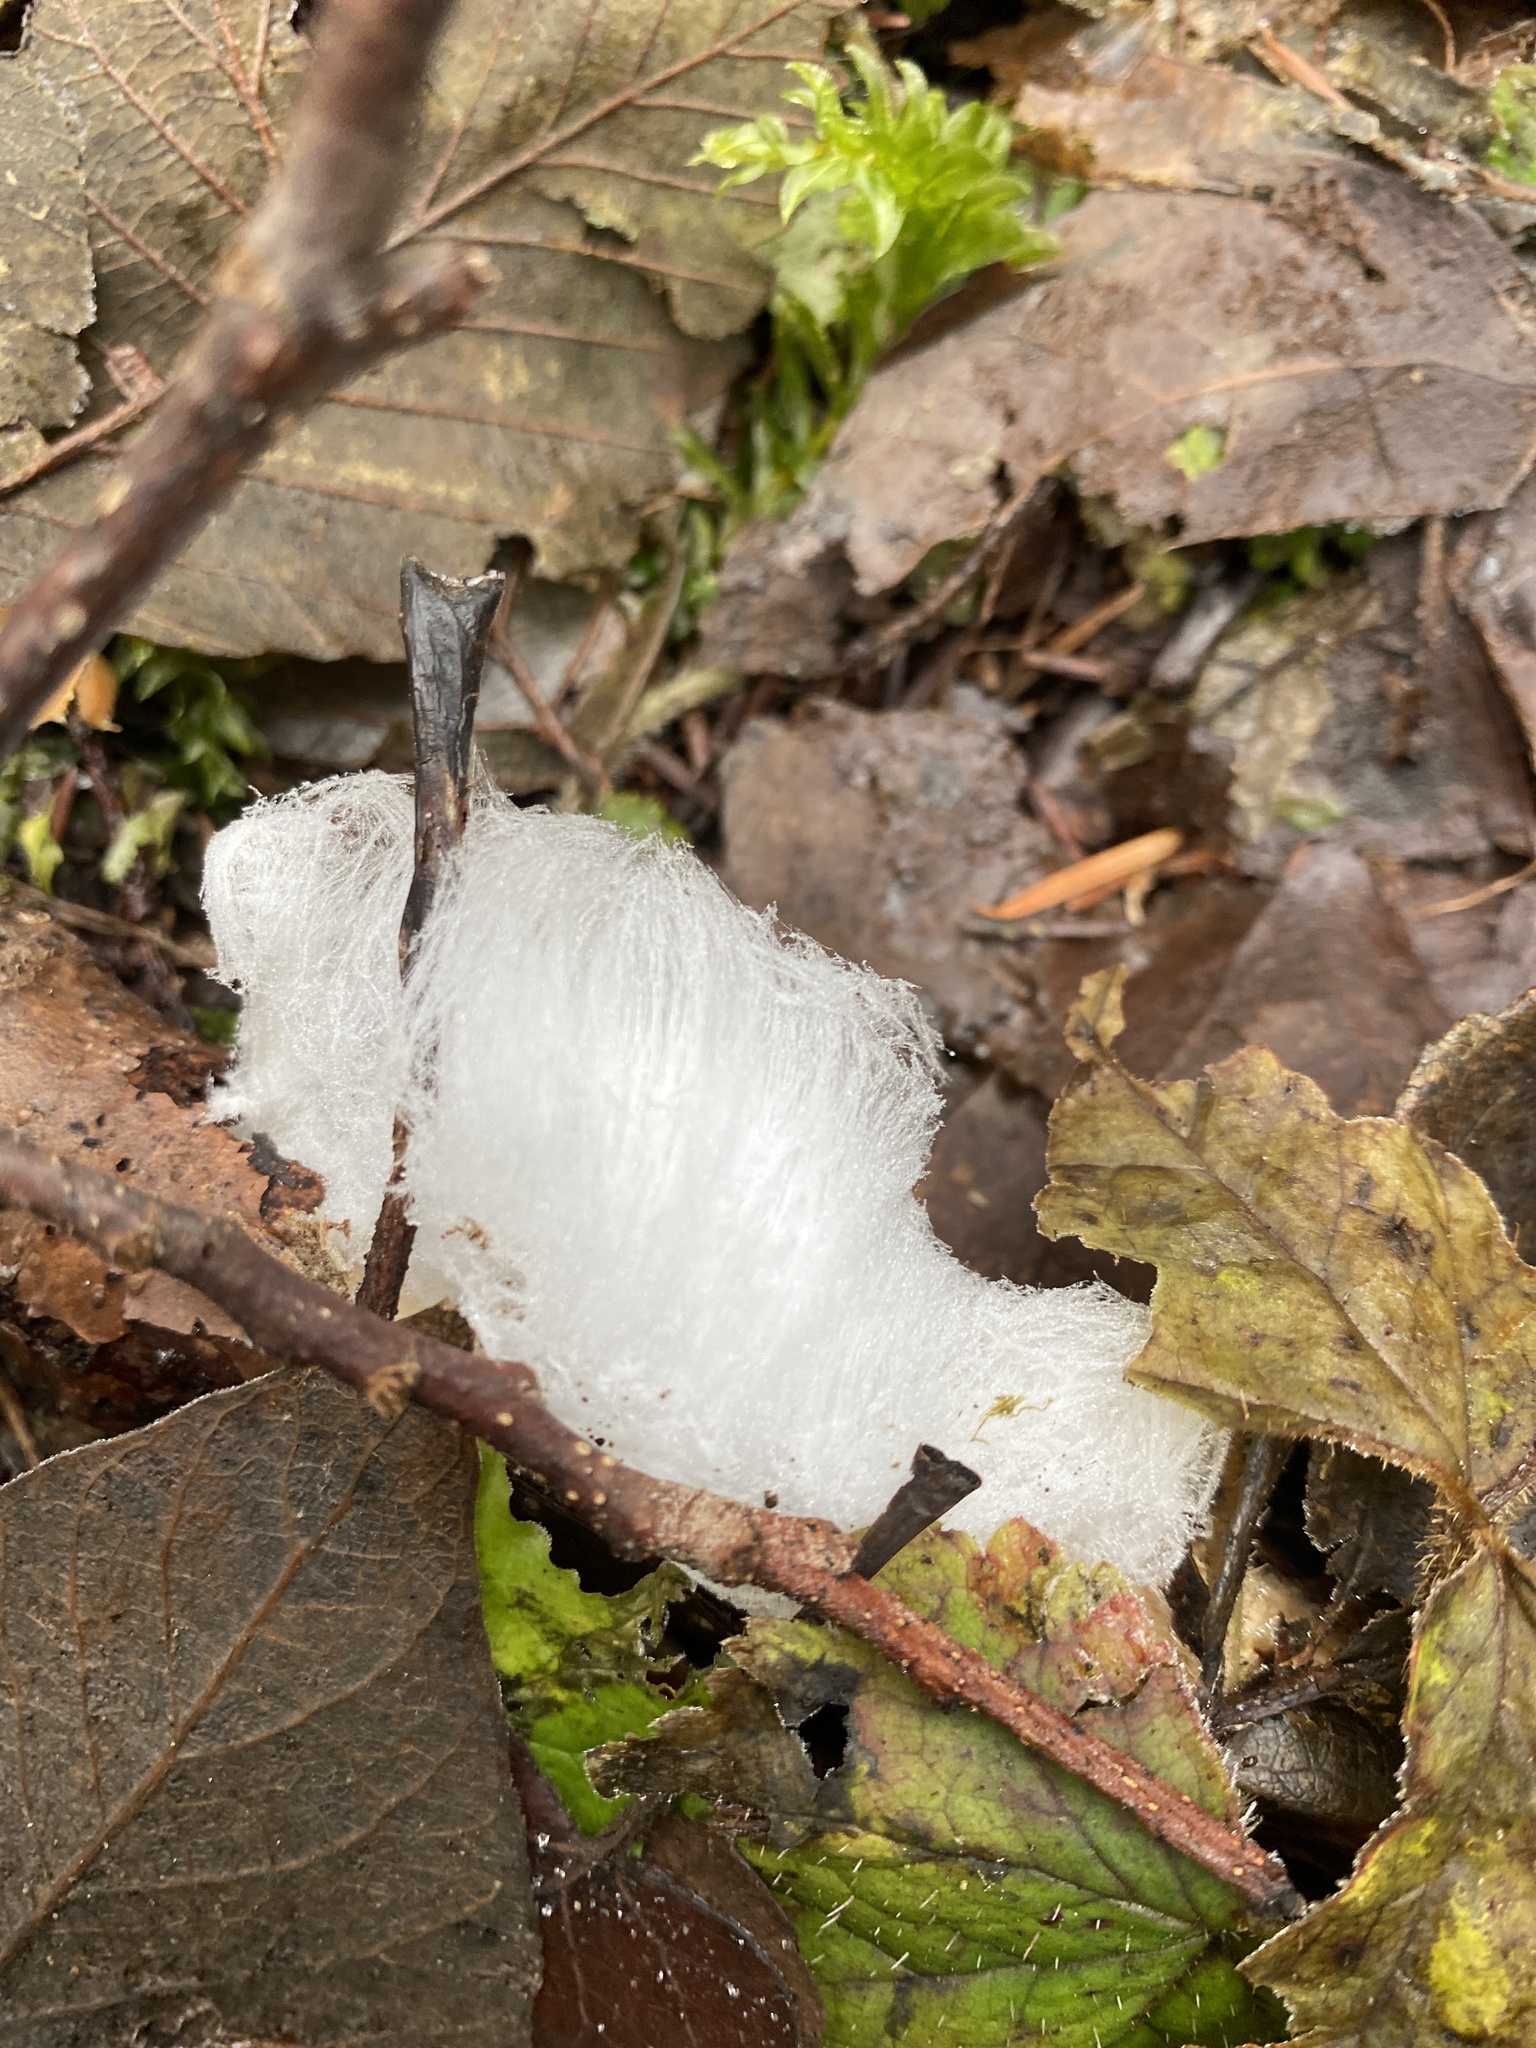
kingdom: Fungi
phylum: Basidiomycota
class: Agaricomycetes
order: Auriculariales
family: Auriculariaceae
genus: Exidiopsis
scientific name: Exidiopsis effusa
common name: Hair ice crust
